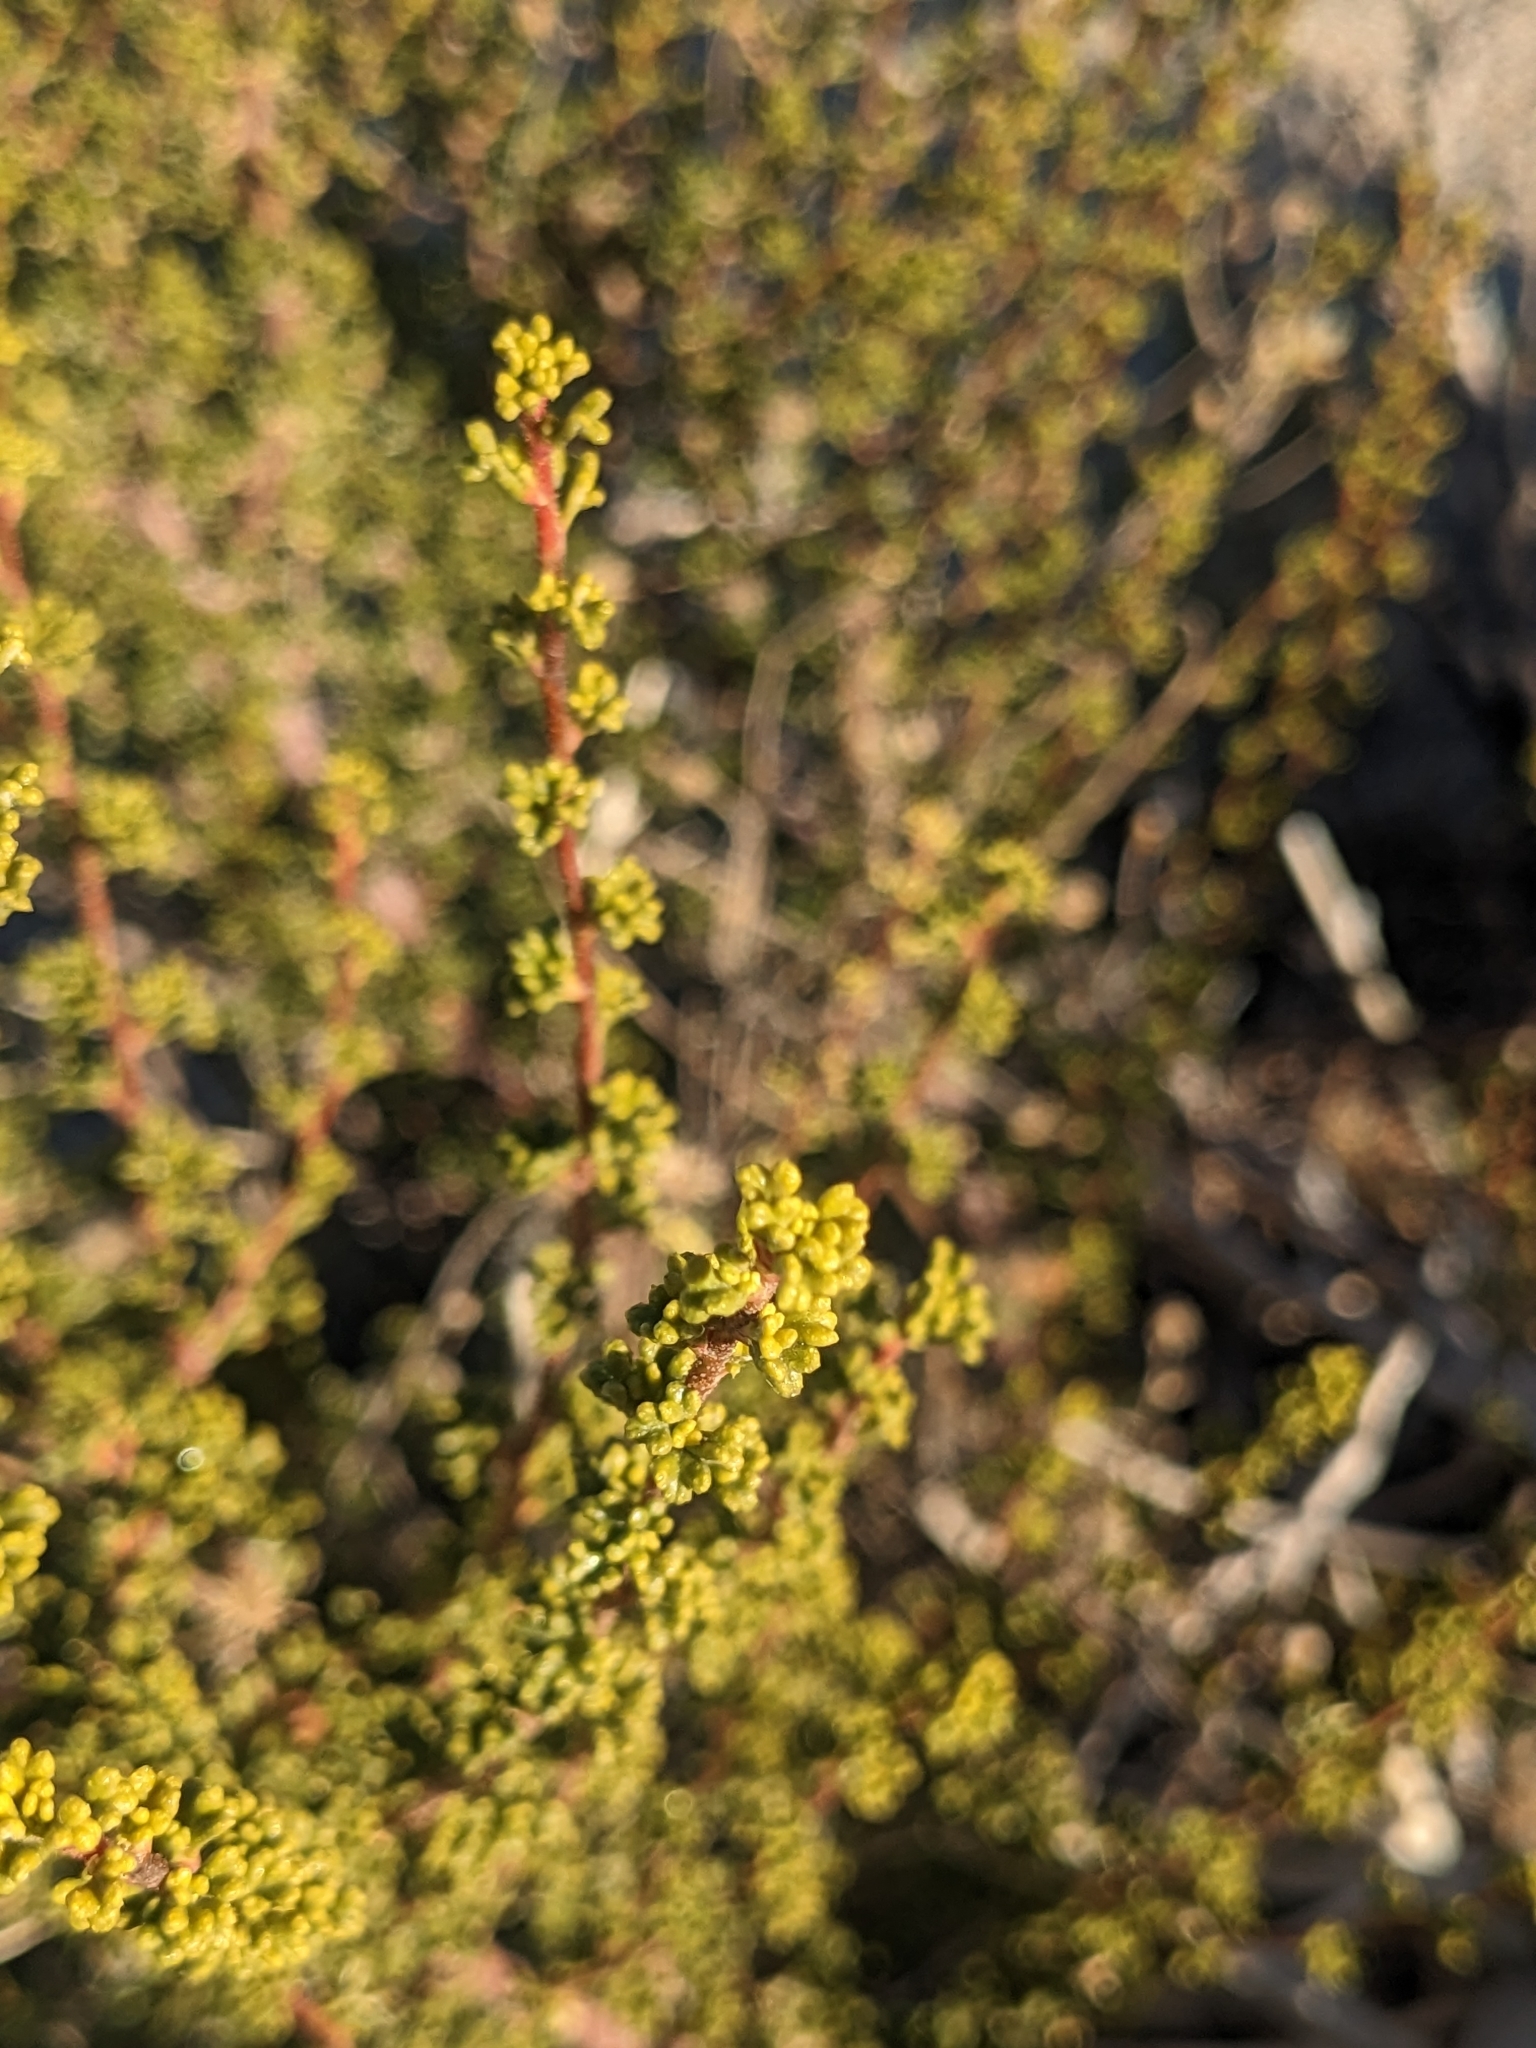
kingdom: Plantae
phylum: Tracheophyta
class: Magnoliopsida
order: Rosales
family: Rosaceae
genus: Purshia
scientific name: Purshia glandulosa
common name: Desert bitterbrush
